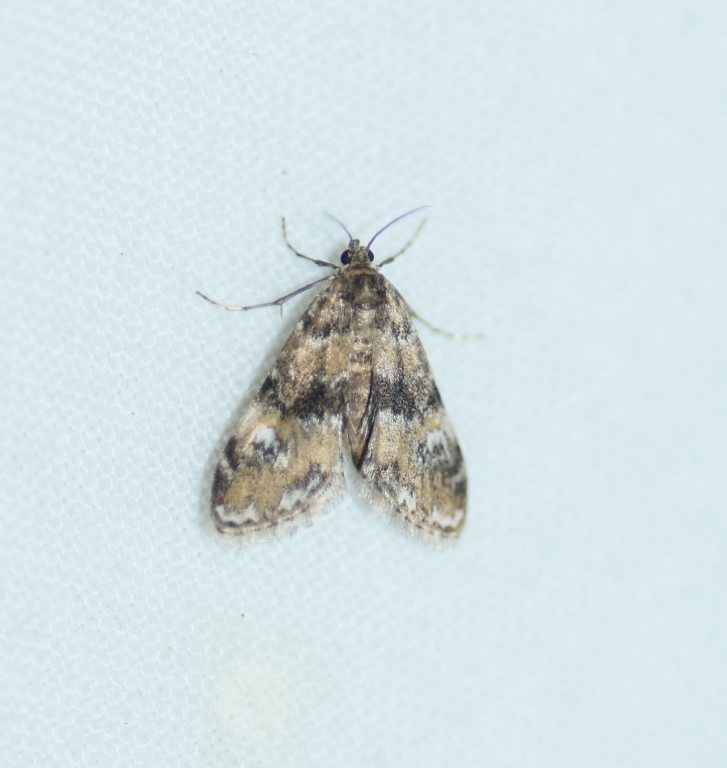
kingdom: Animalia
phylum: Arthropoda
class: Insecta
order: Lepidoptera
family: Crambidae
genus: Elophila
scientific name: Elophila obliteralis
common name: Waterlily leafcutter moth
